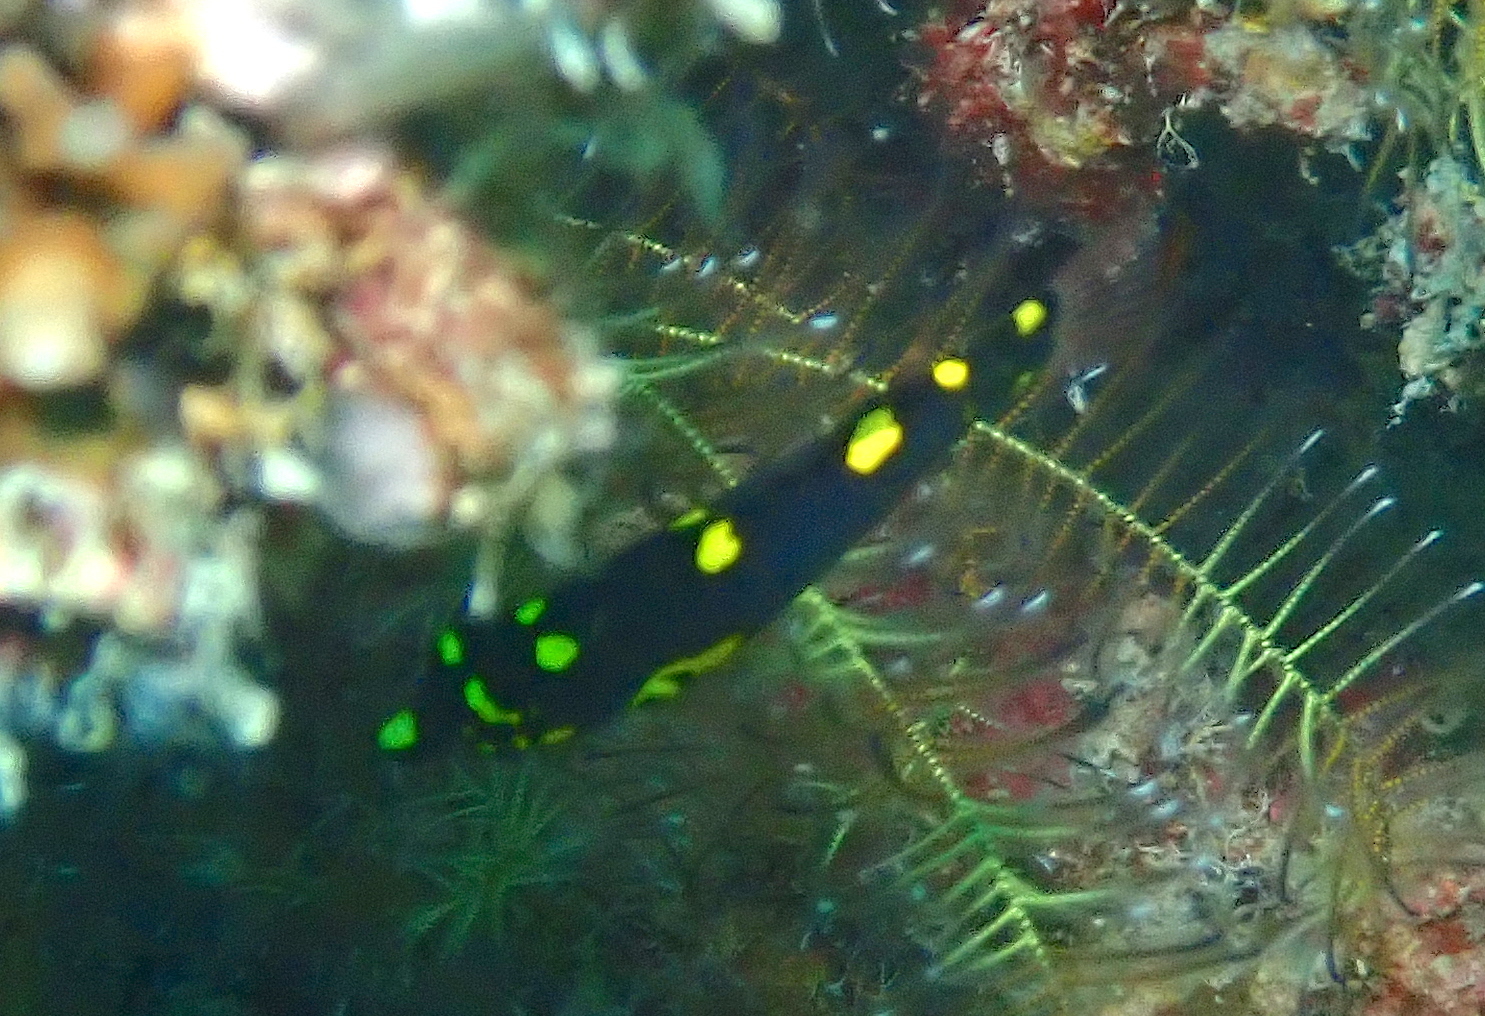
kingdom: Animalia
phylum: Chordata
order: Perciformes
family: Labridae
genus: Bodianus
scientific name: Bodianus mesothorax
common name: Coral hogfish
